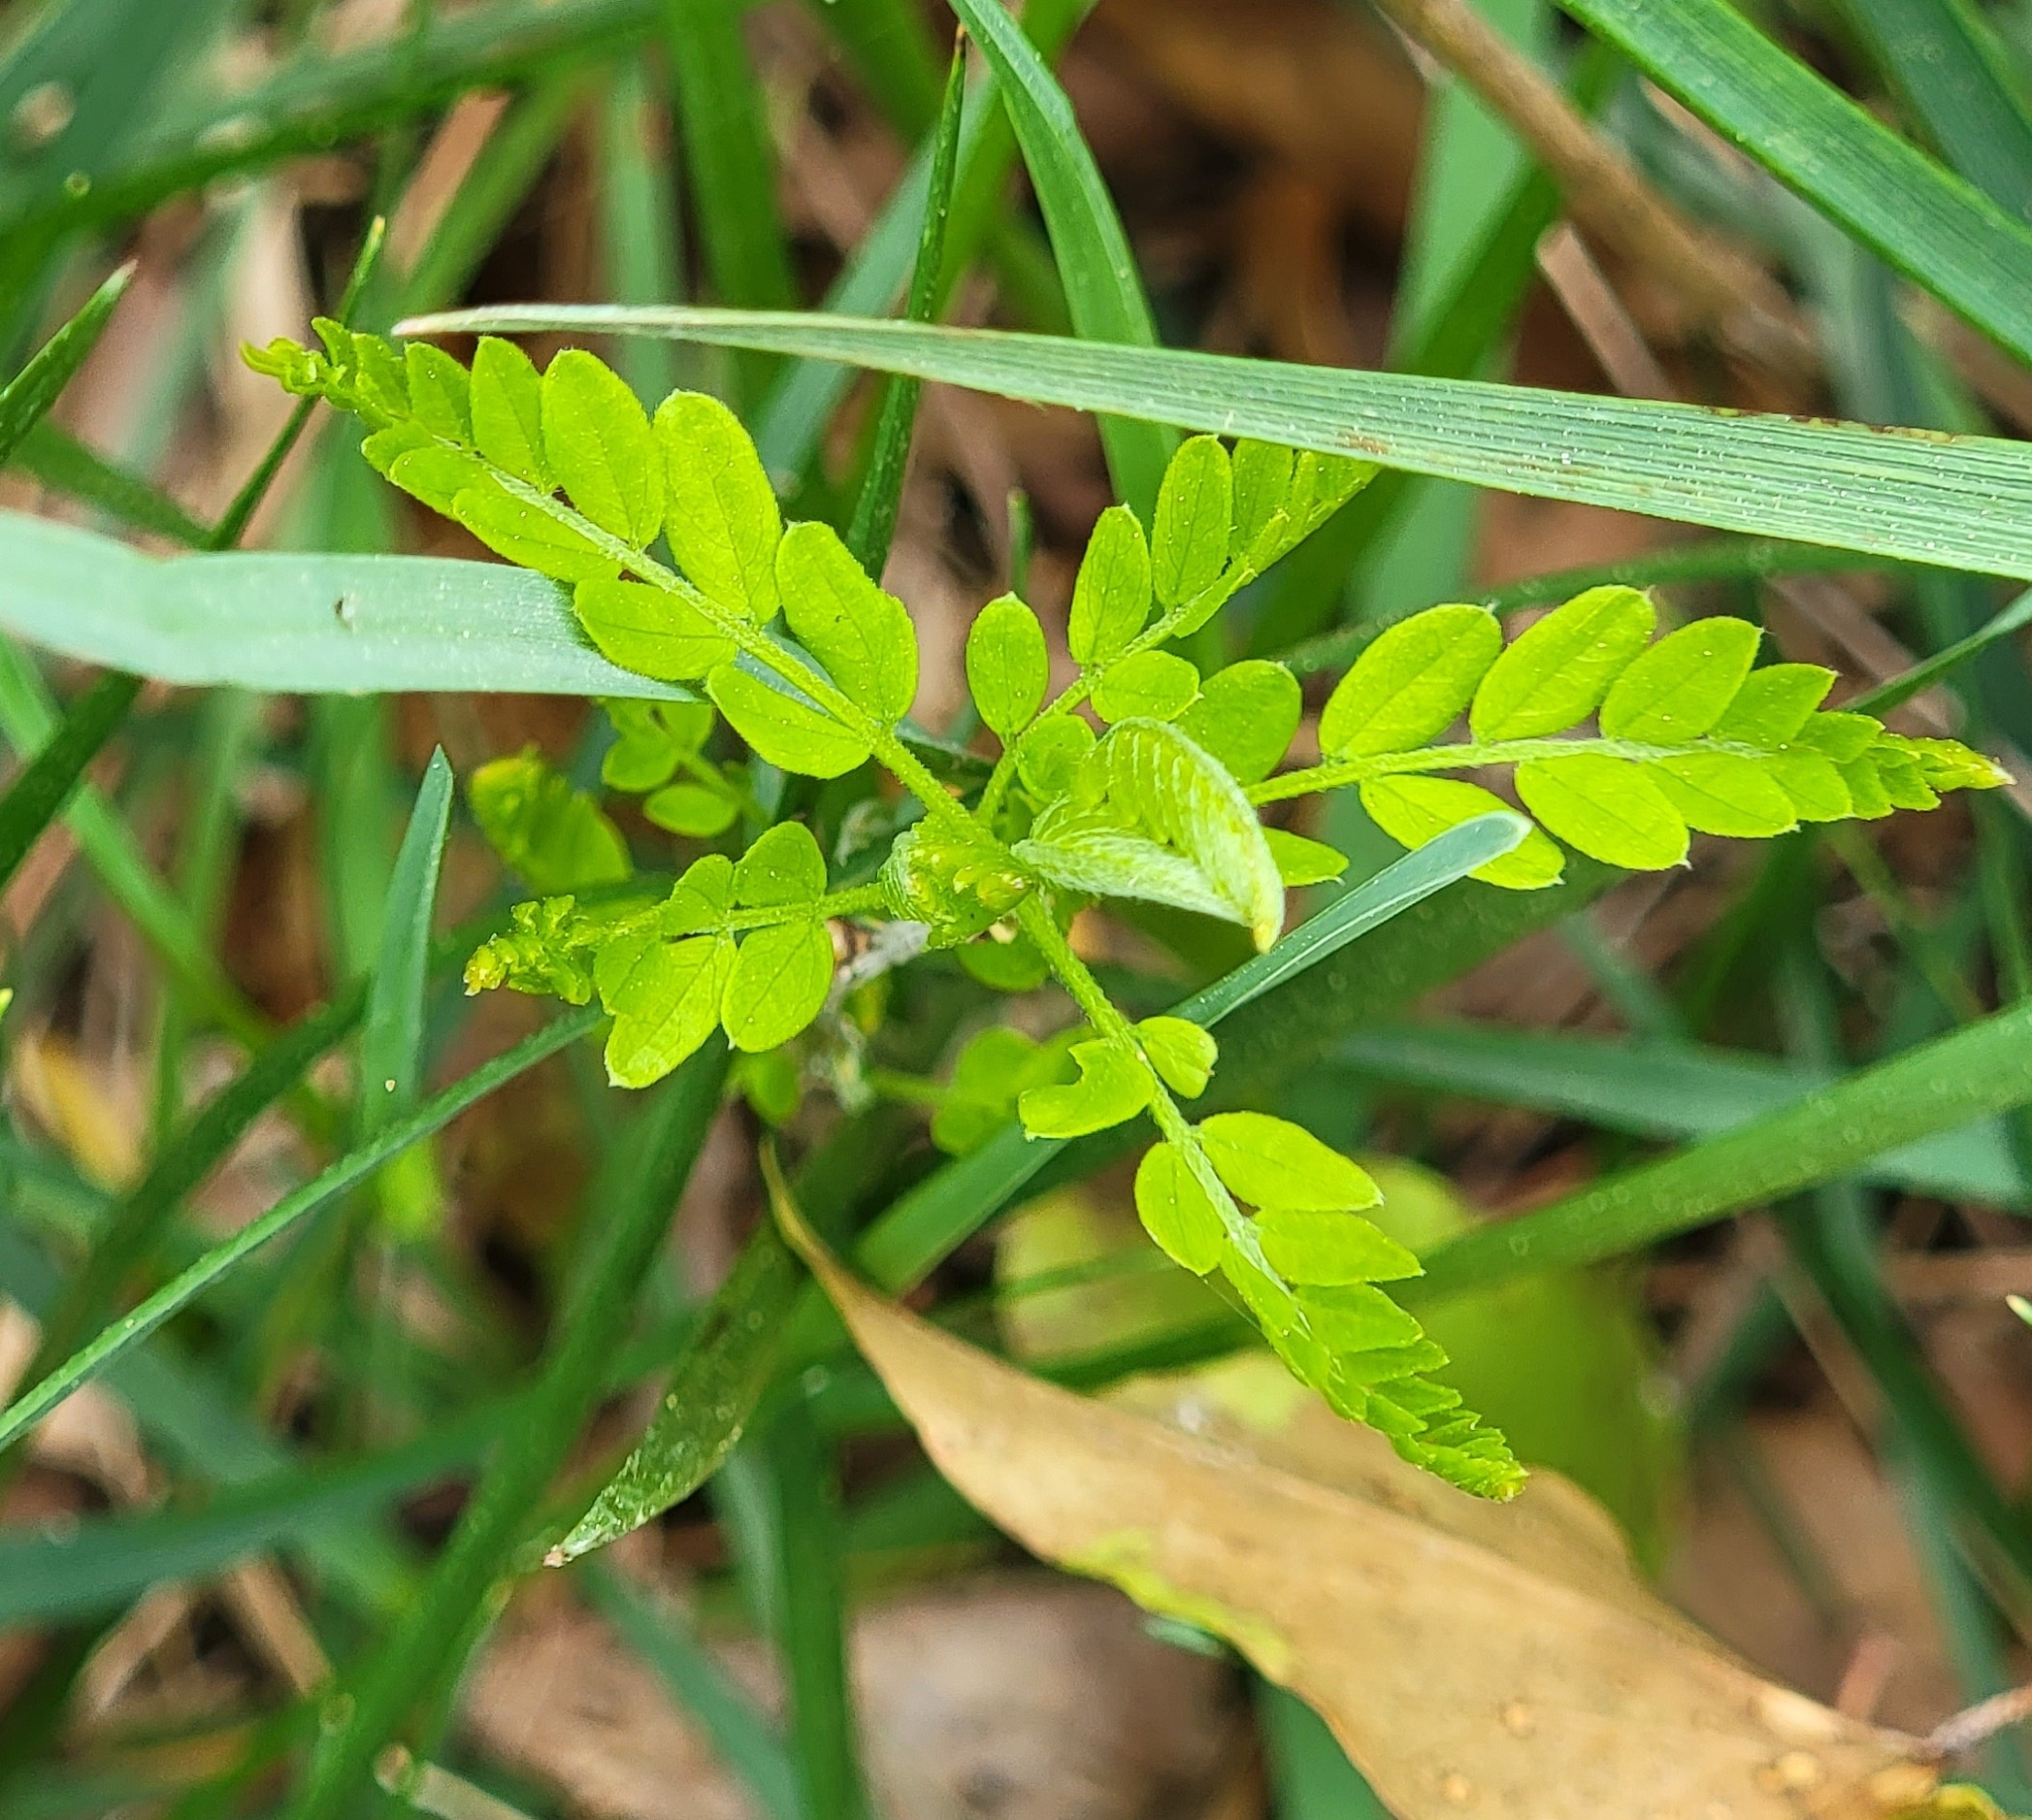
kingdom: Plantae
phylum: Tracheophyta
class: Magnoliopsida
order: Fabales
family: Fabaceae
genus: Gleditsia
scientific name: Gleditsia triacanthos
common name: Common honeylocust
